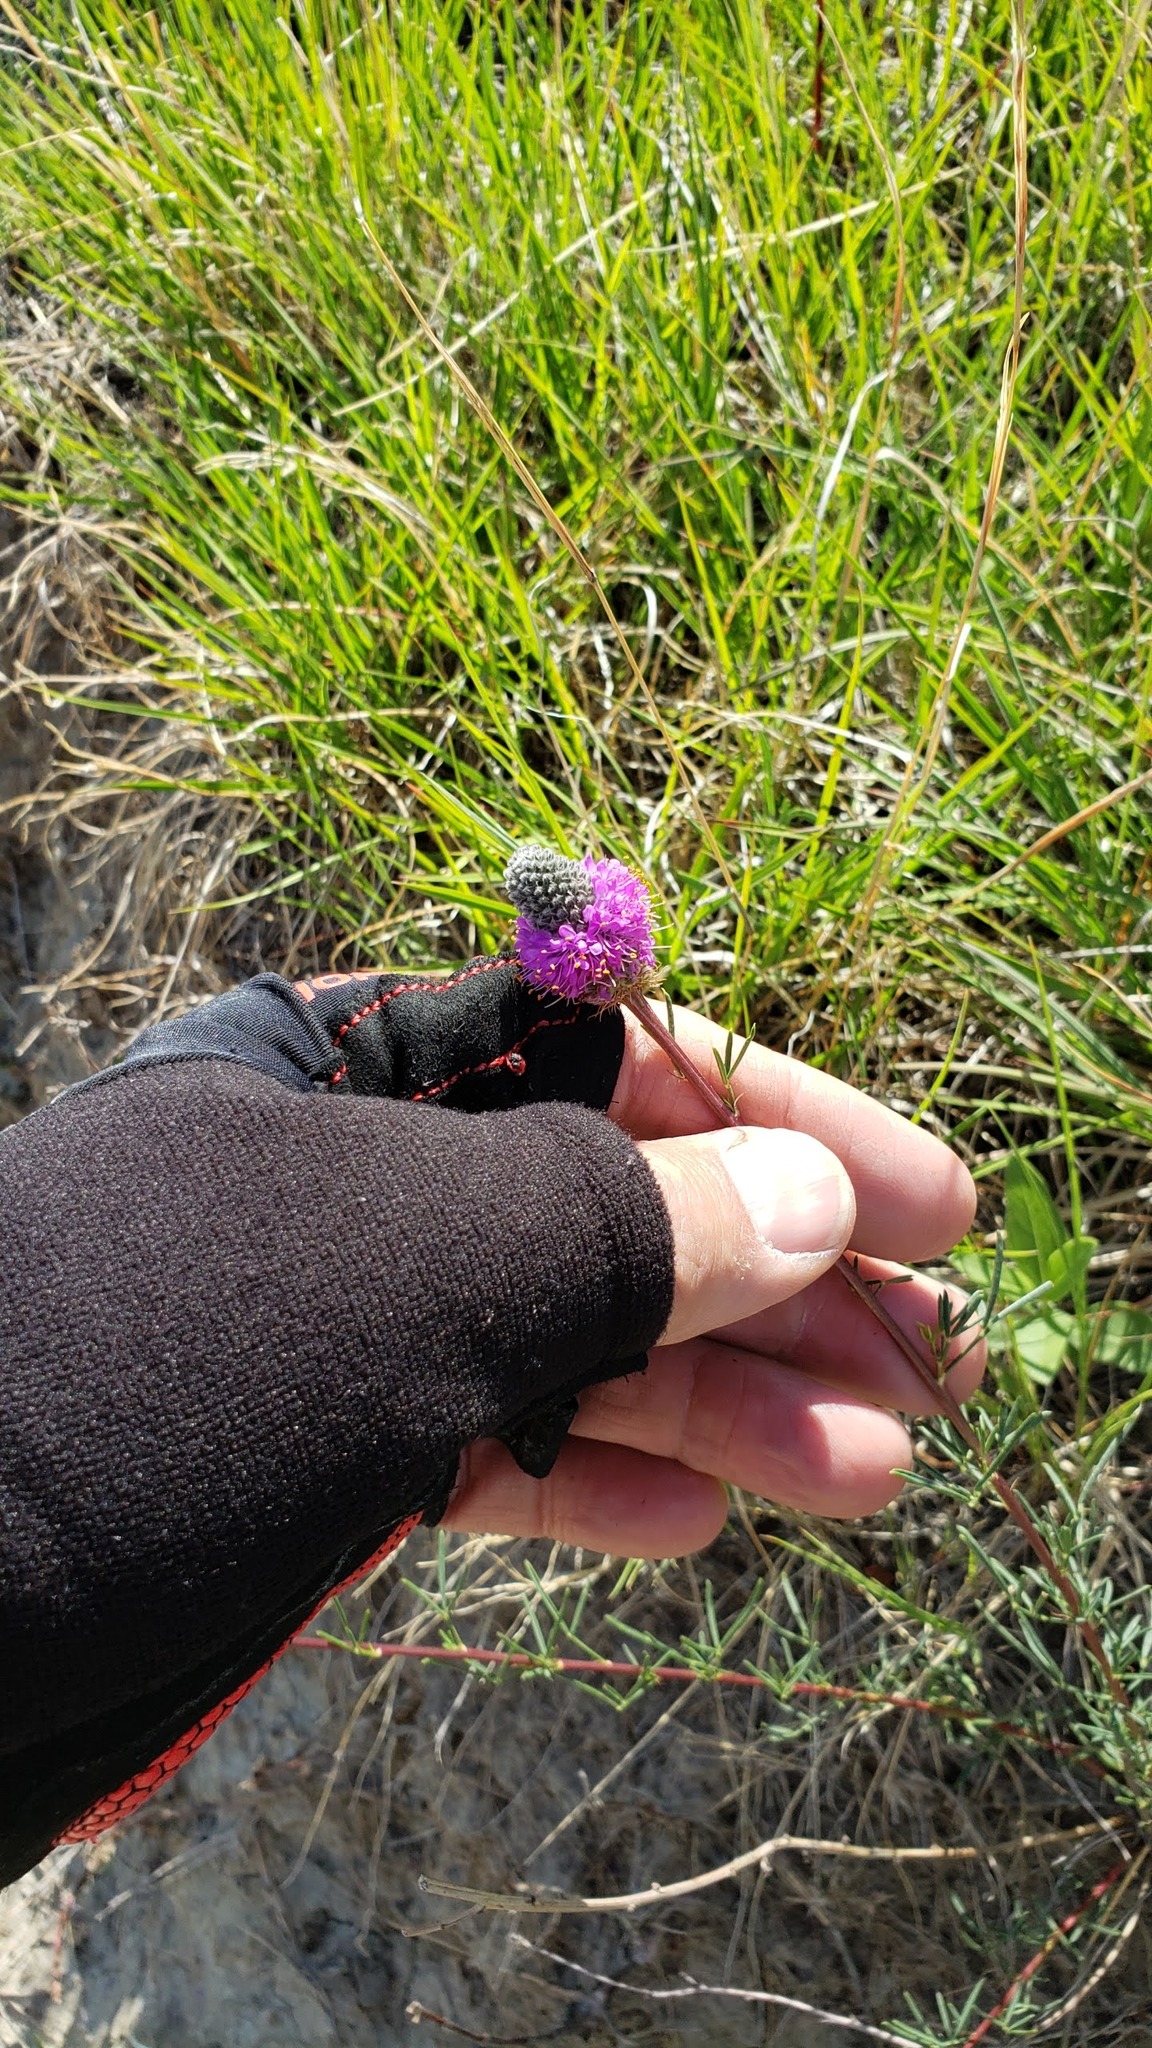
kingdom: Plantae
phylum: Tracheophyta
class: Magnoliopsida
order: Fabales
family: Fabaceae
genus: Dalea
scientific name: Dalea purpurea
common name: Purple prairie-clover
